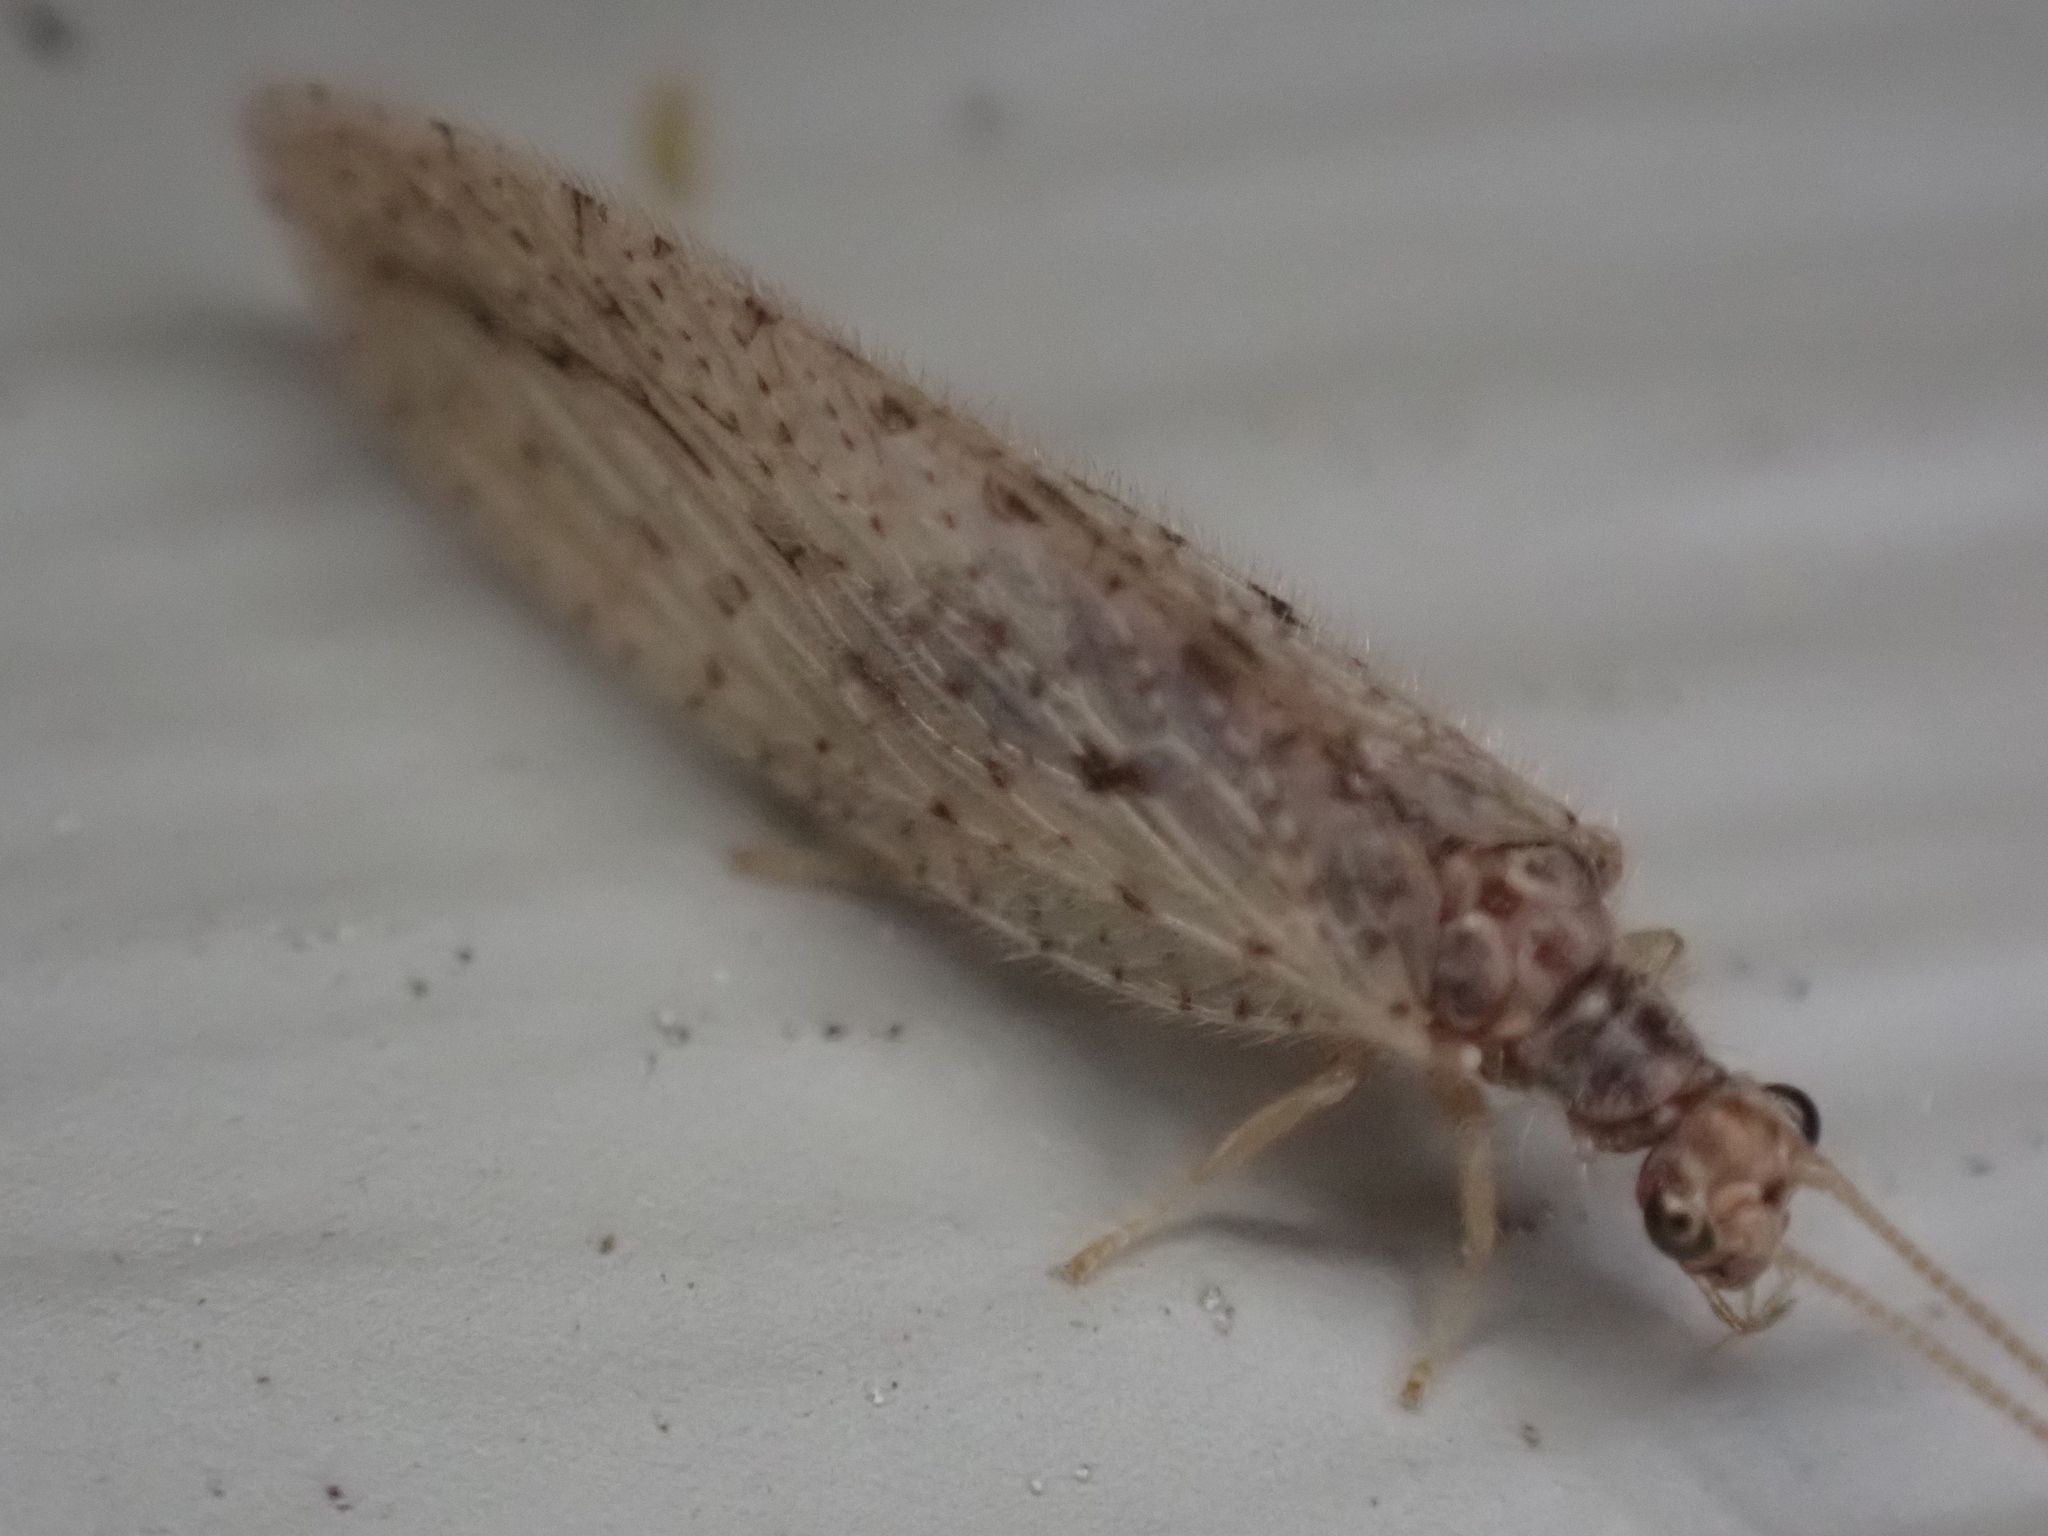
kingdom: Animalia
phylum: Arthropoda
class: Insecta
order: Neuroptera
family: Hemerobiidae
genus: Micromus
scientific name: Micromus subanticus
